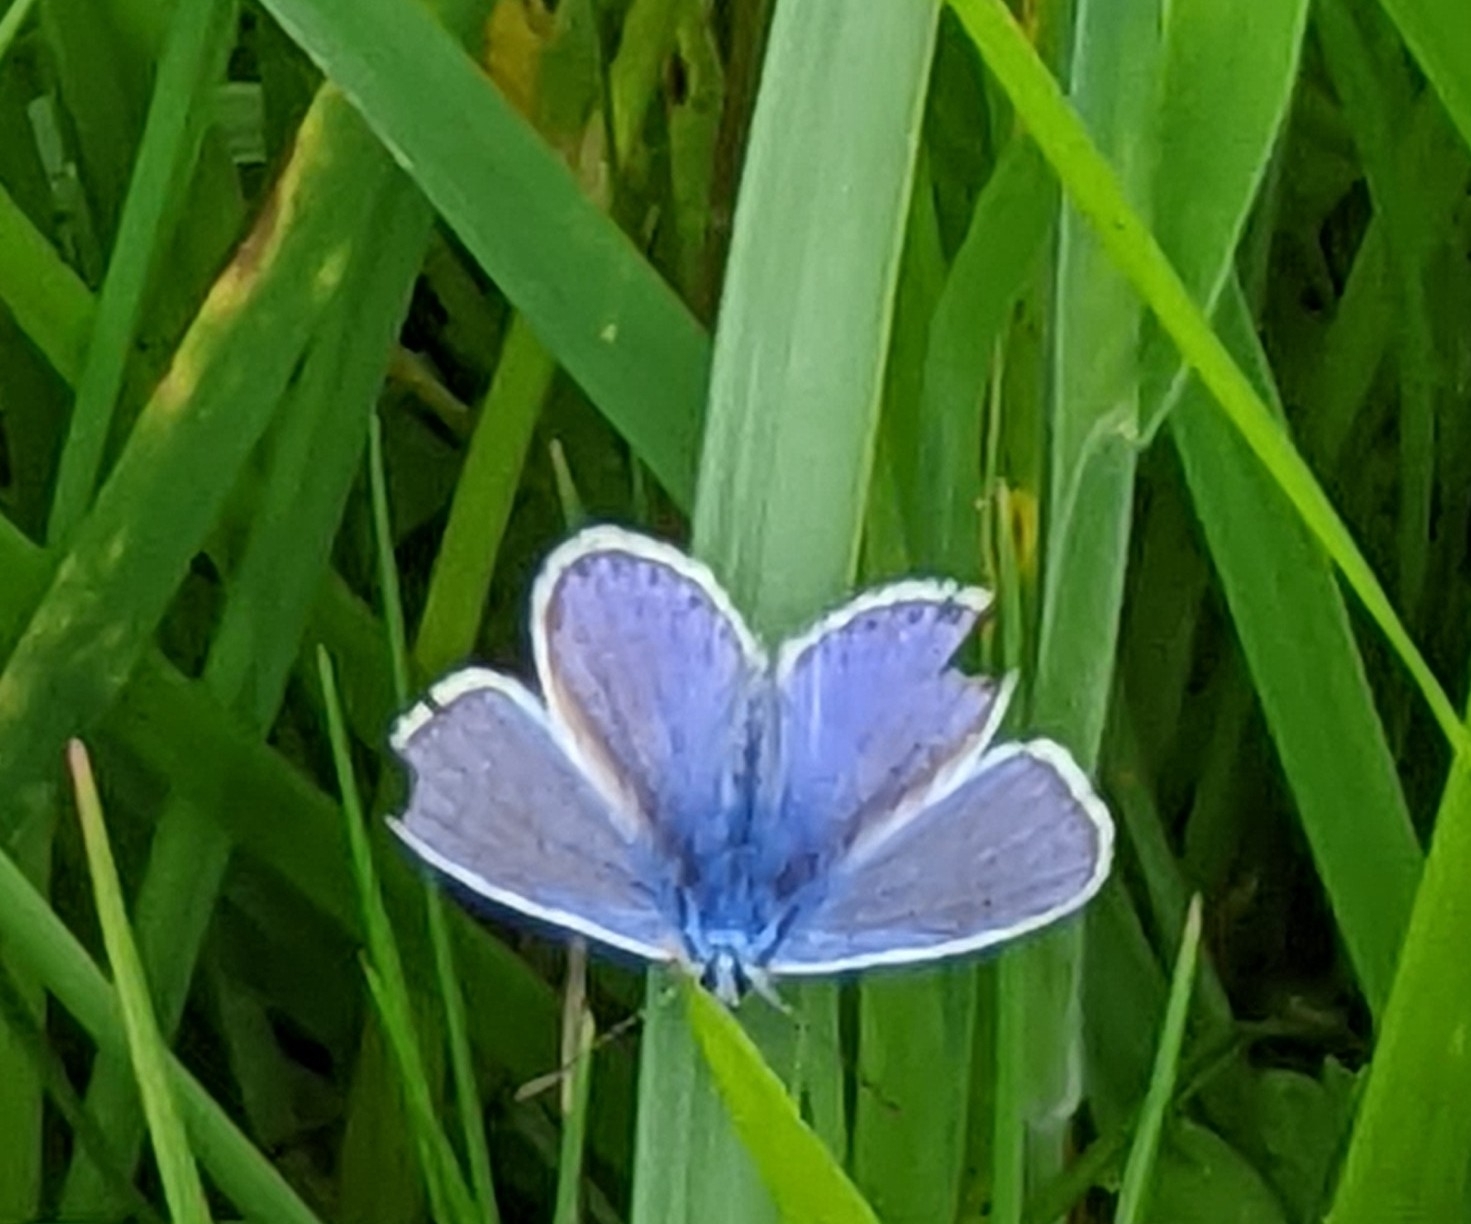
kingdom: Animalia
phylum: Arthropoda
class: Insecta
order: Lepidoptera
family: Lycaenidae
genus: Polyommatus
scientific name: Polyommatus icarus
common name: Common blue
